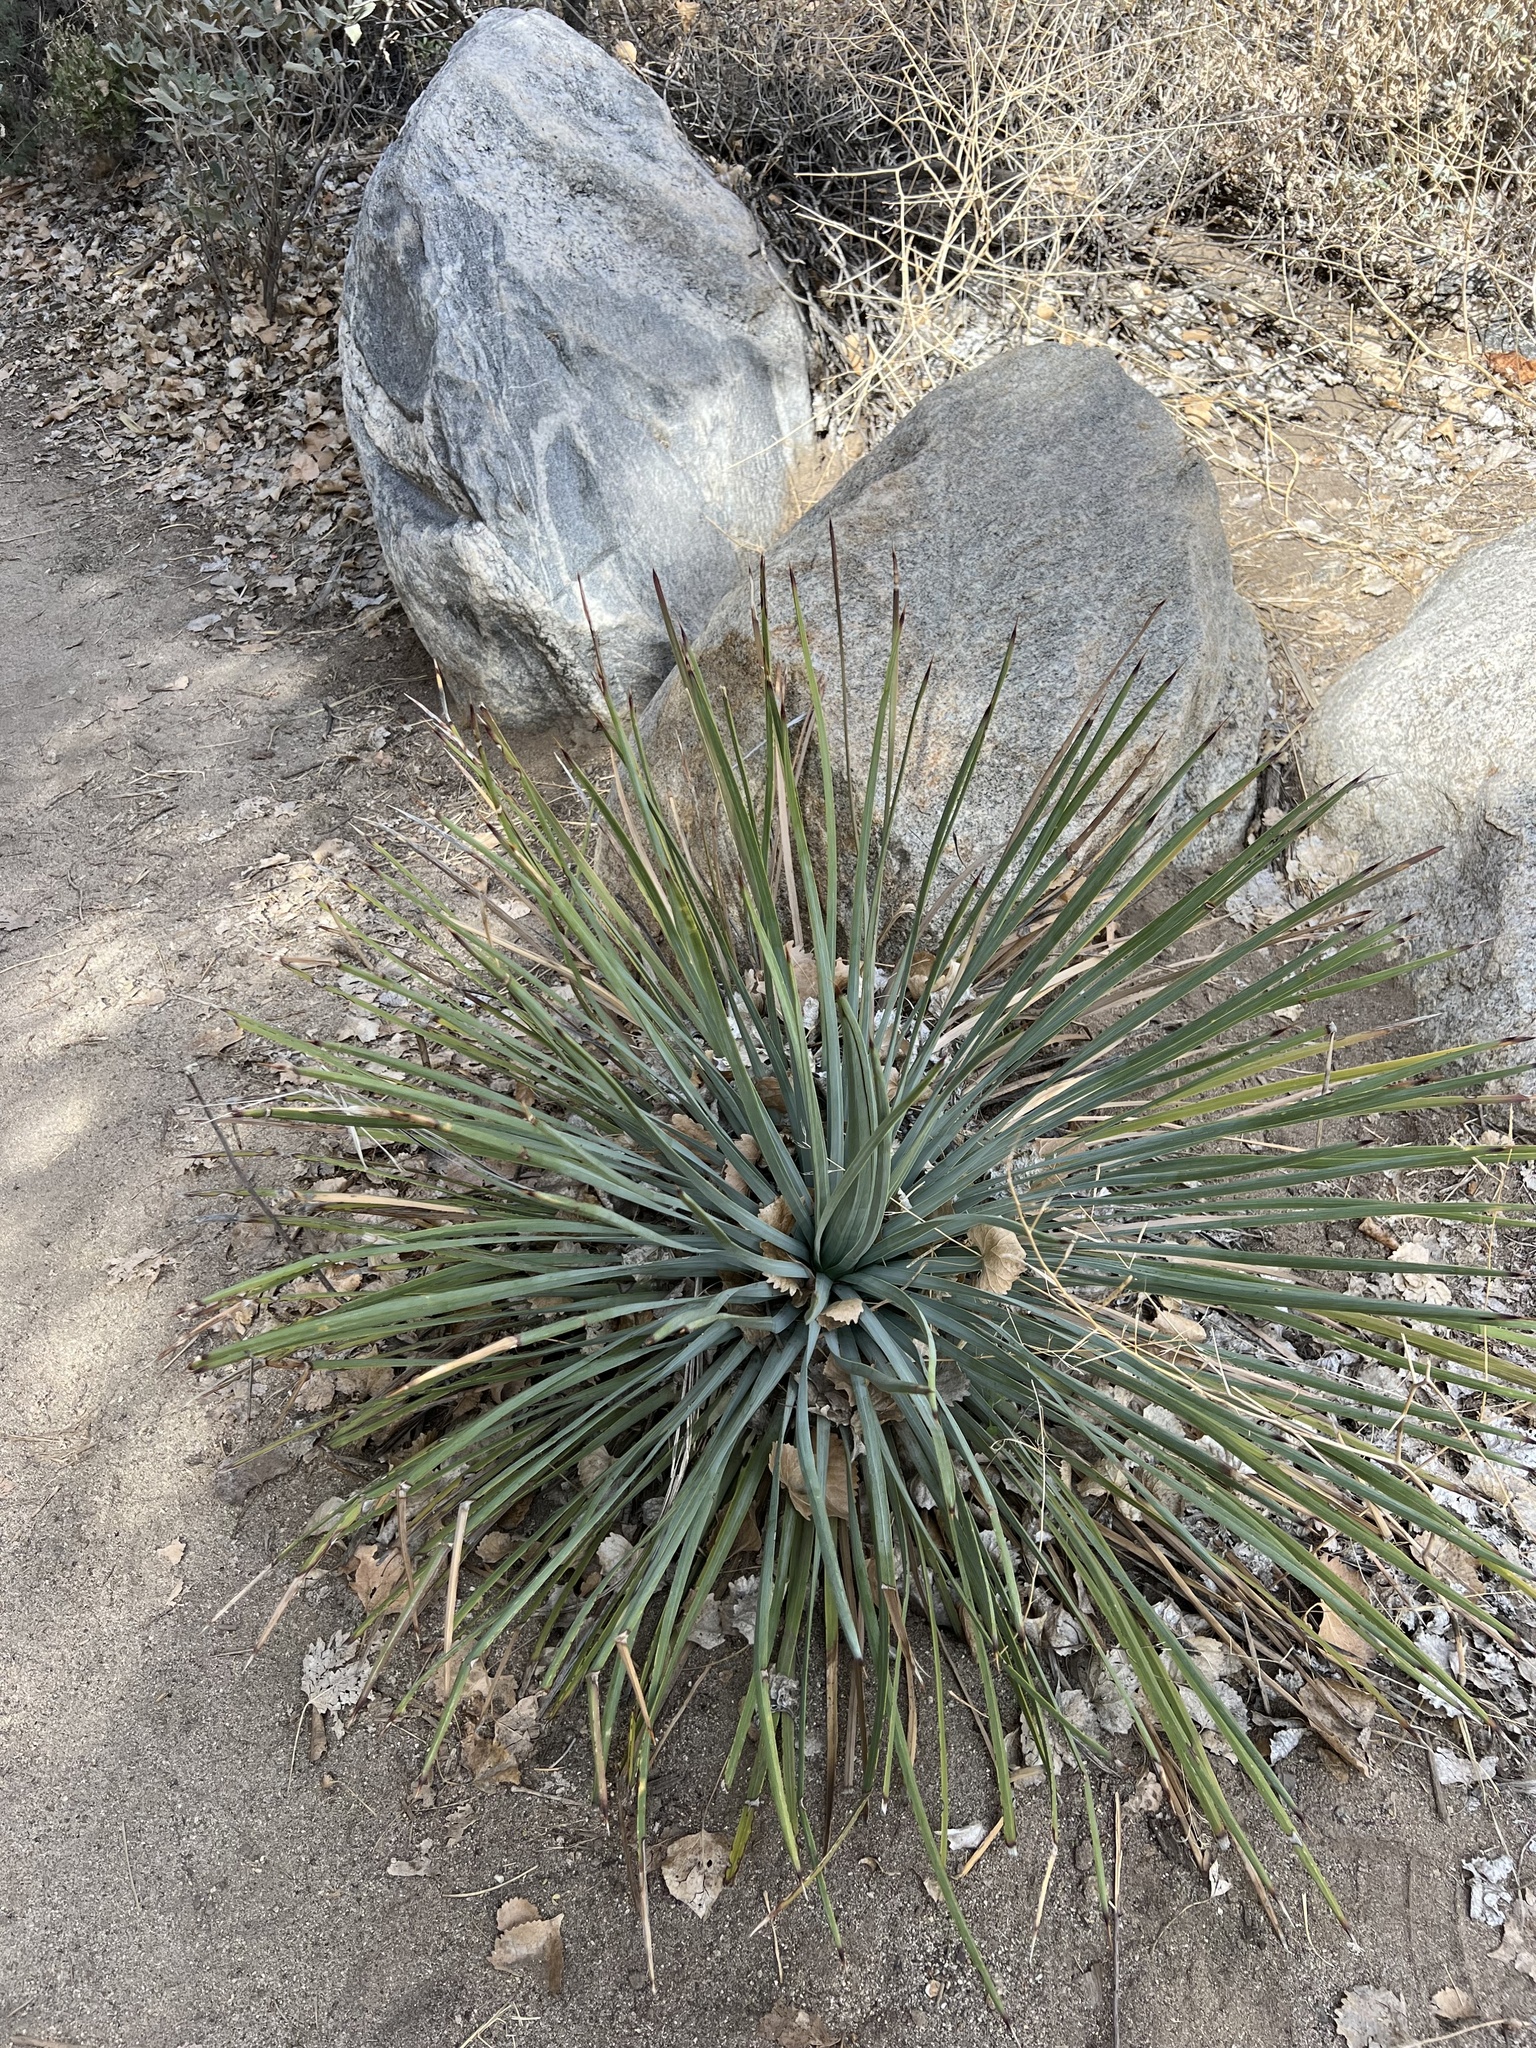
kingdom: Plantae
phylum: Tracheophyta
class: Liliopsida
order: Asparagales
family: Asparagaceae
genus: Hesperoyucca
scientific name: Hesperoyucca whipplei
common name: Our lord's-candle
